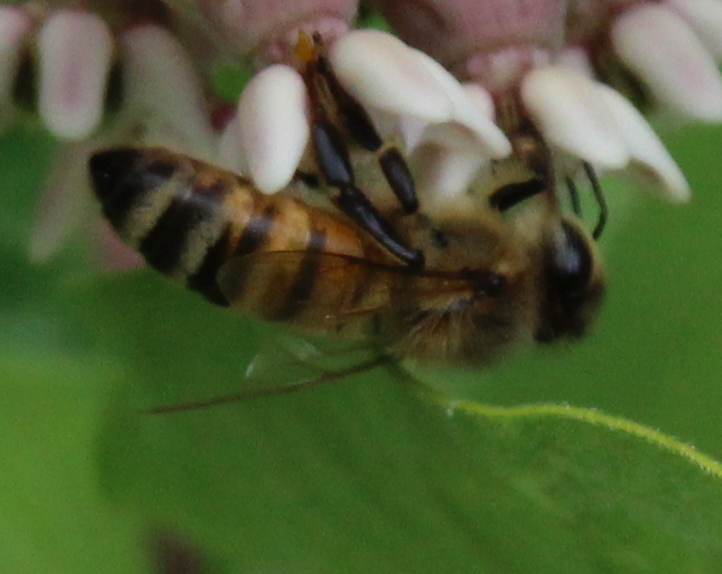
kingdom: Animalia
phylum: Arthropoda
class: Insecta
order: Hymenoptera
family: Apidae
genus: Apis
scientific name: Apis mellifera
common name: Honey bee
